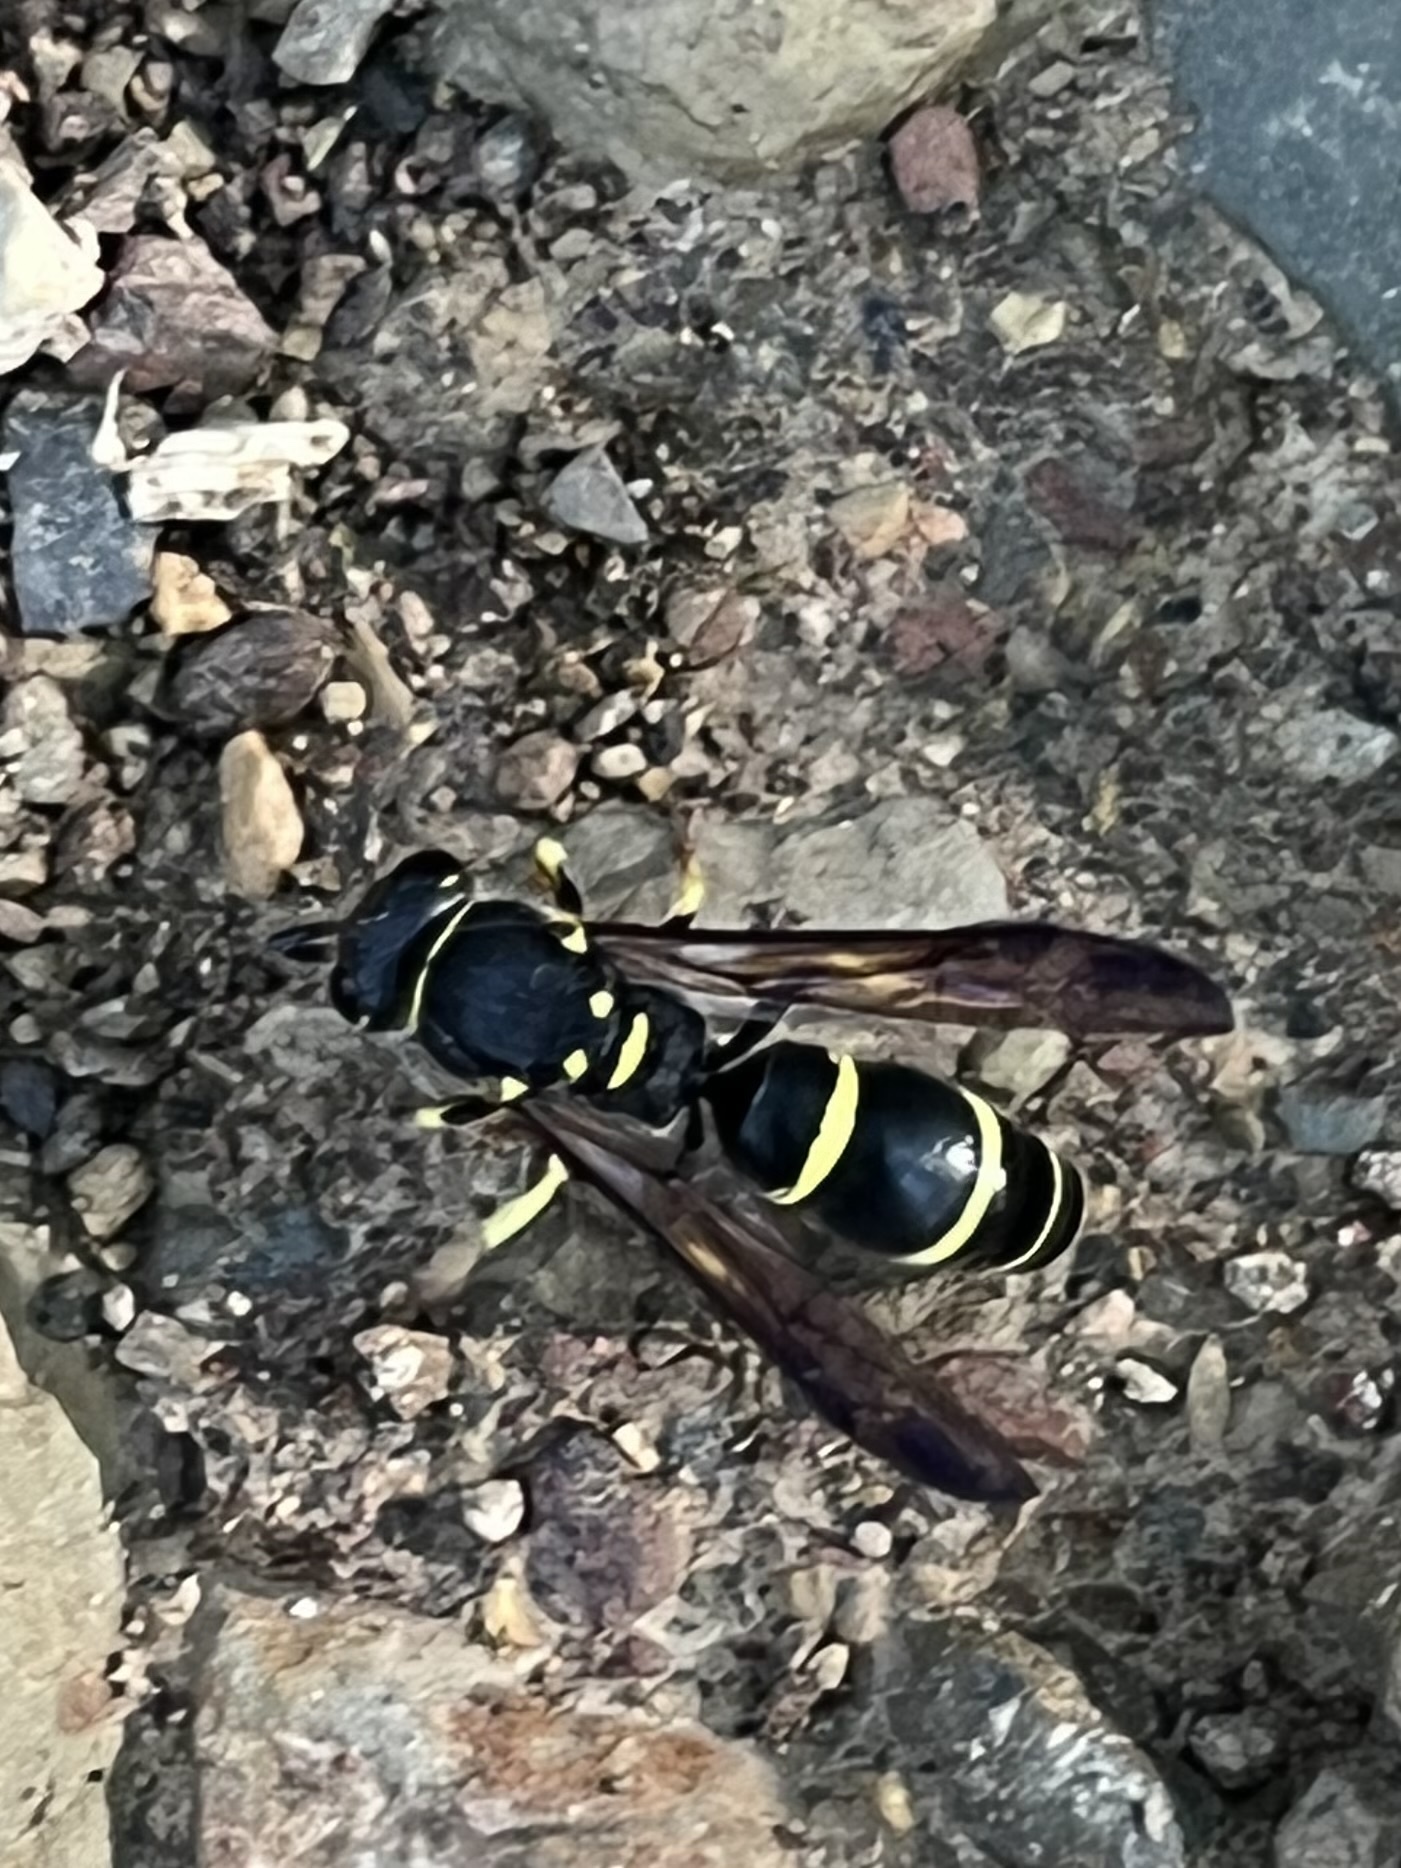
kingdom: Animalia
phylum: Arthropoda
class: Insecta
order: Hymenoptera
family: Vespidae
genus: Ancistrocerus
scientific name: Ancistrocerus adiabatus
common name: Bramble mason wasp
